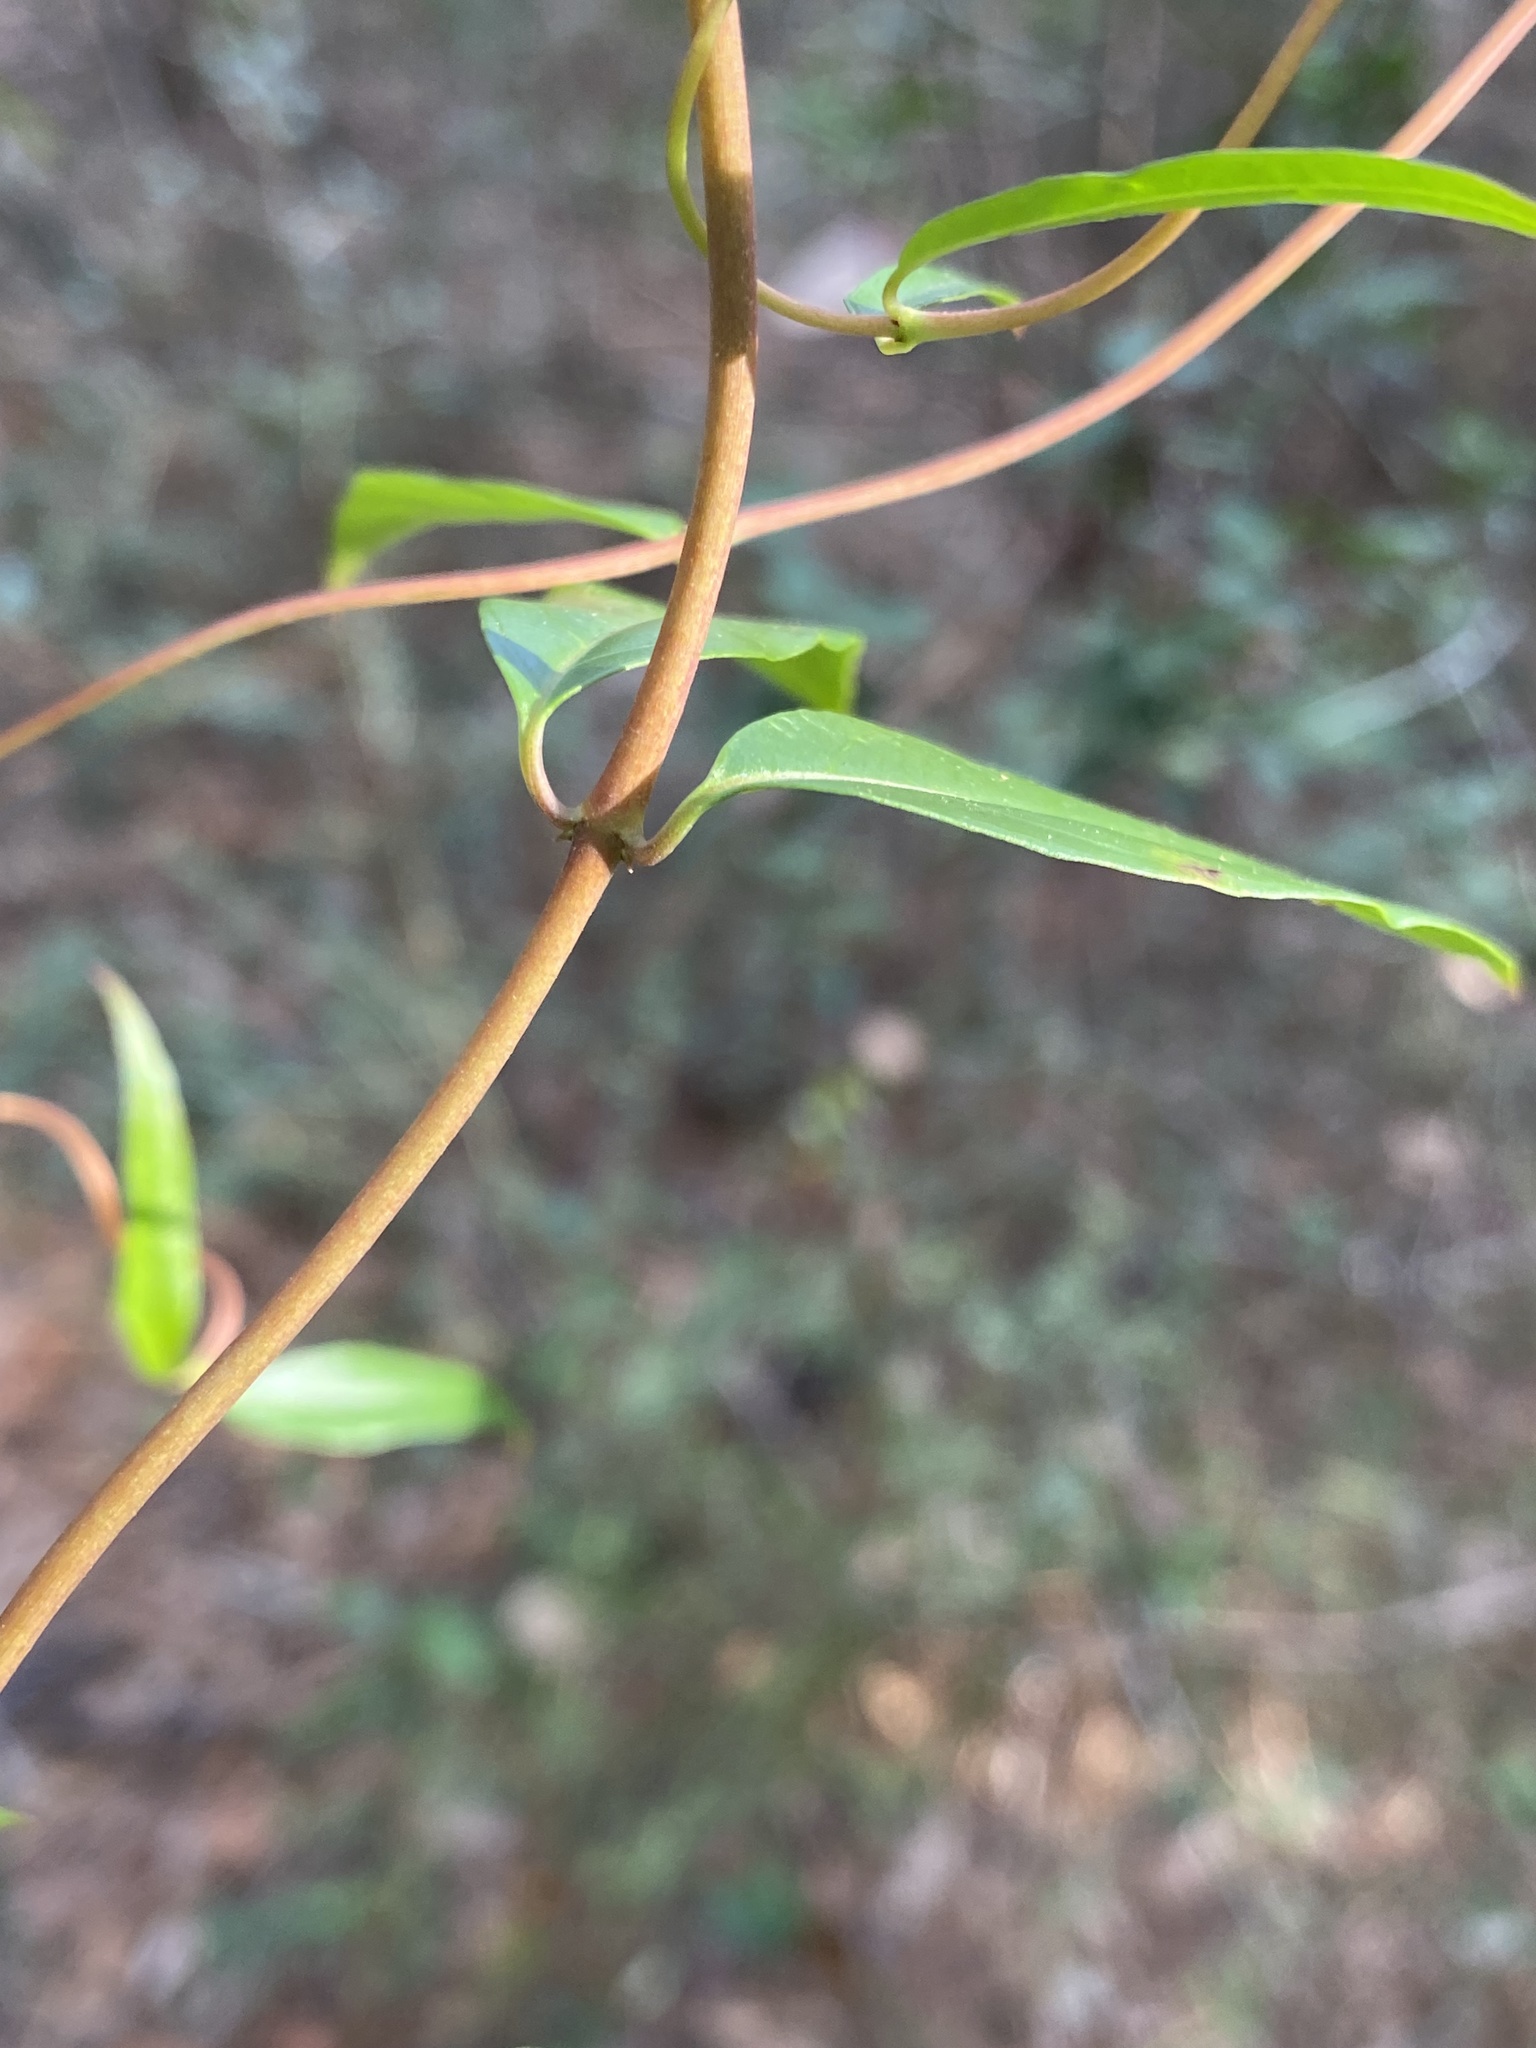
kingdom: Plantae
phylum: Tracheophyta
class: Magnoliopsida
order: Gentianales
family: Gelsemiaceae
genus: Gelsemium
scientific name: Gelsemium sempervirens
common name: Carolina-jasmine
